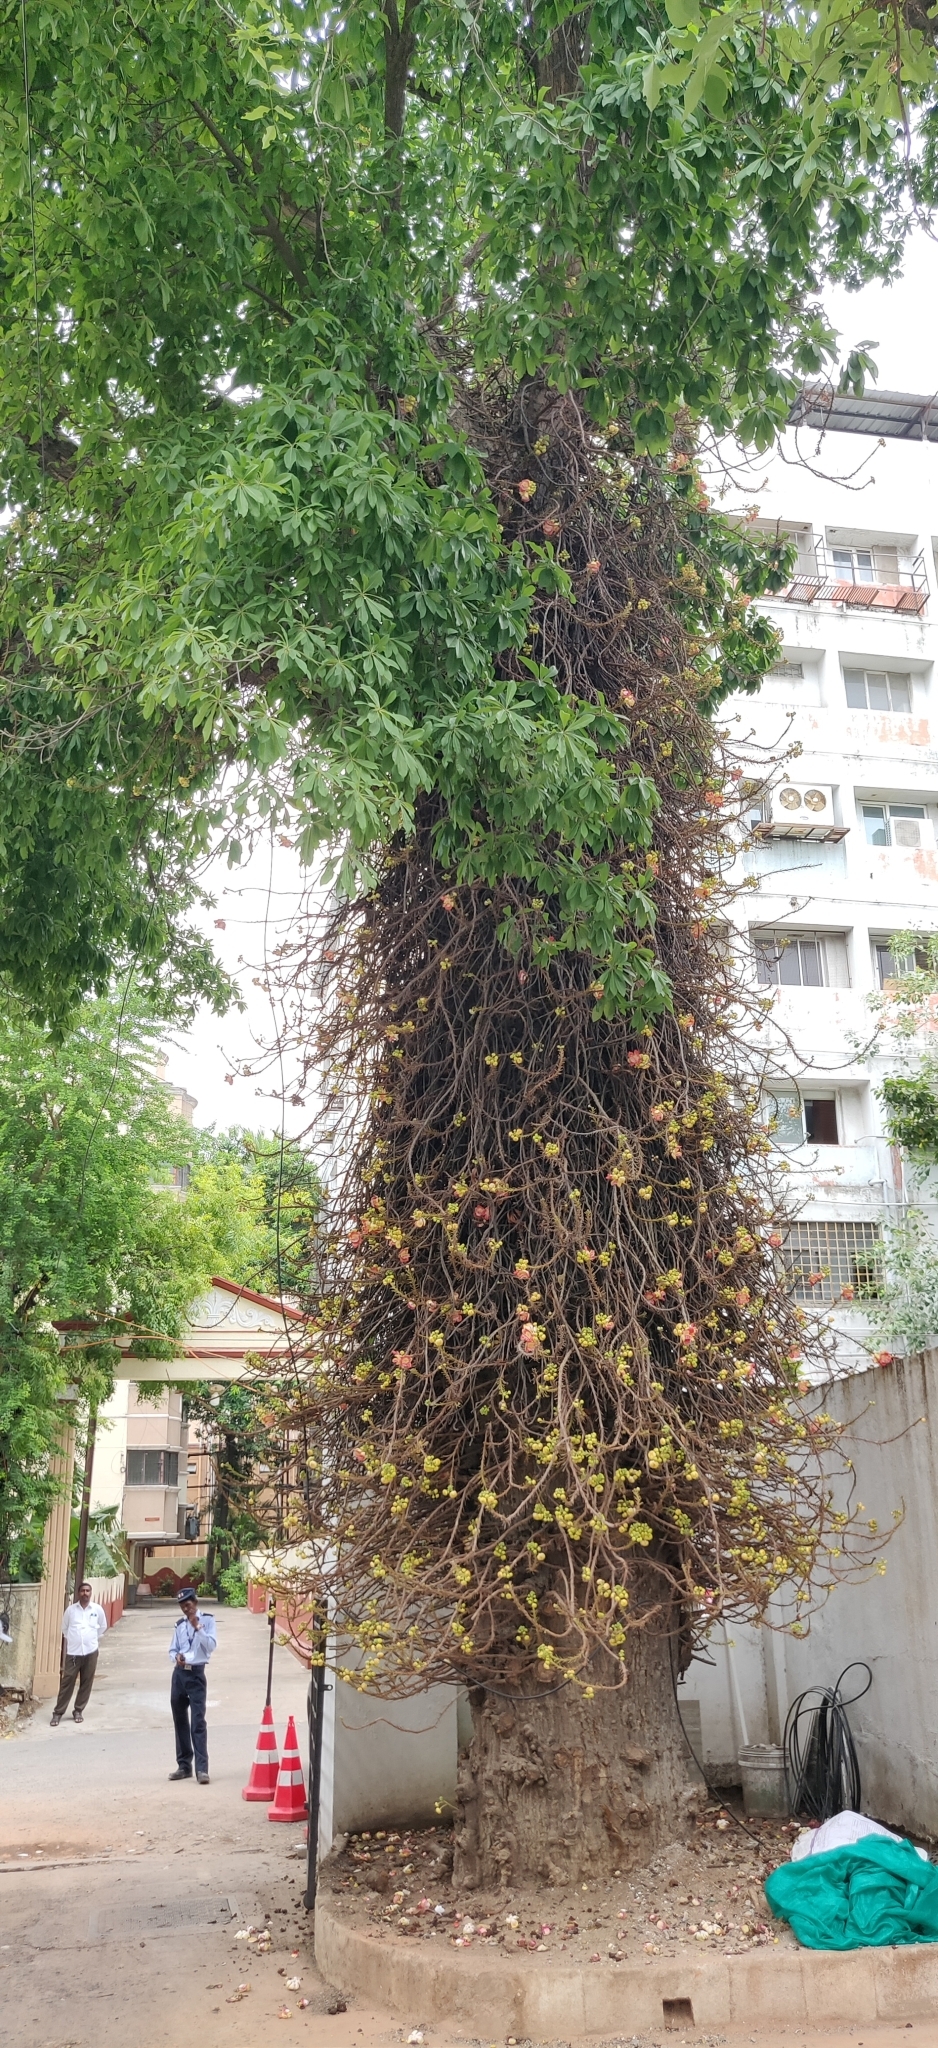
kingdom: Plantae
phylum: Tracheophyta
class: Magnoliopsida
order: Ericales
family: Lecythidaceae
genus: Couroupita
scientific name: Couroupita guianensis
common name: Cannonball tree
